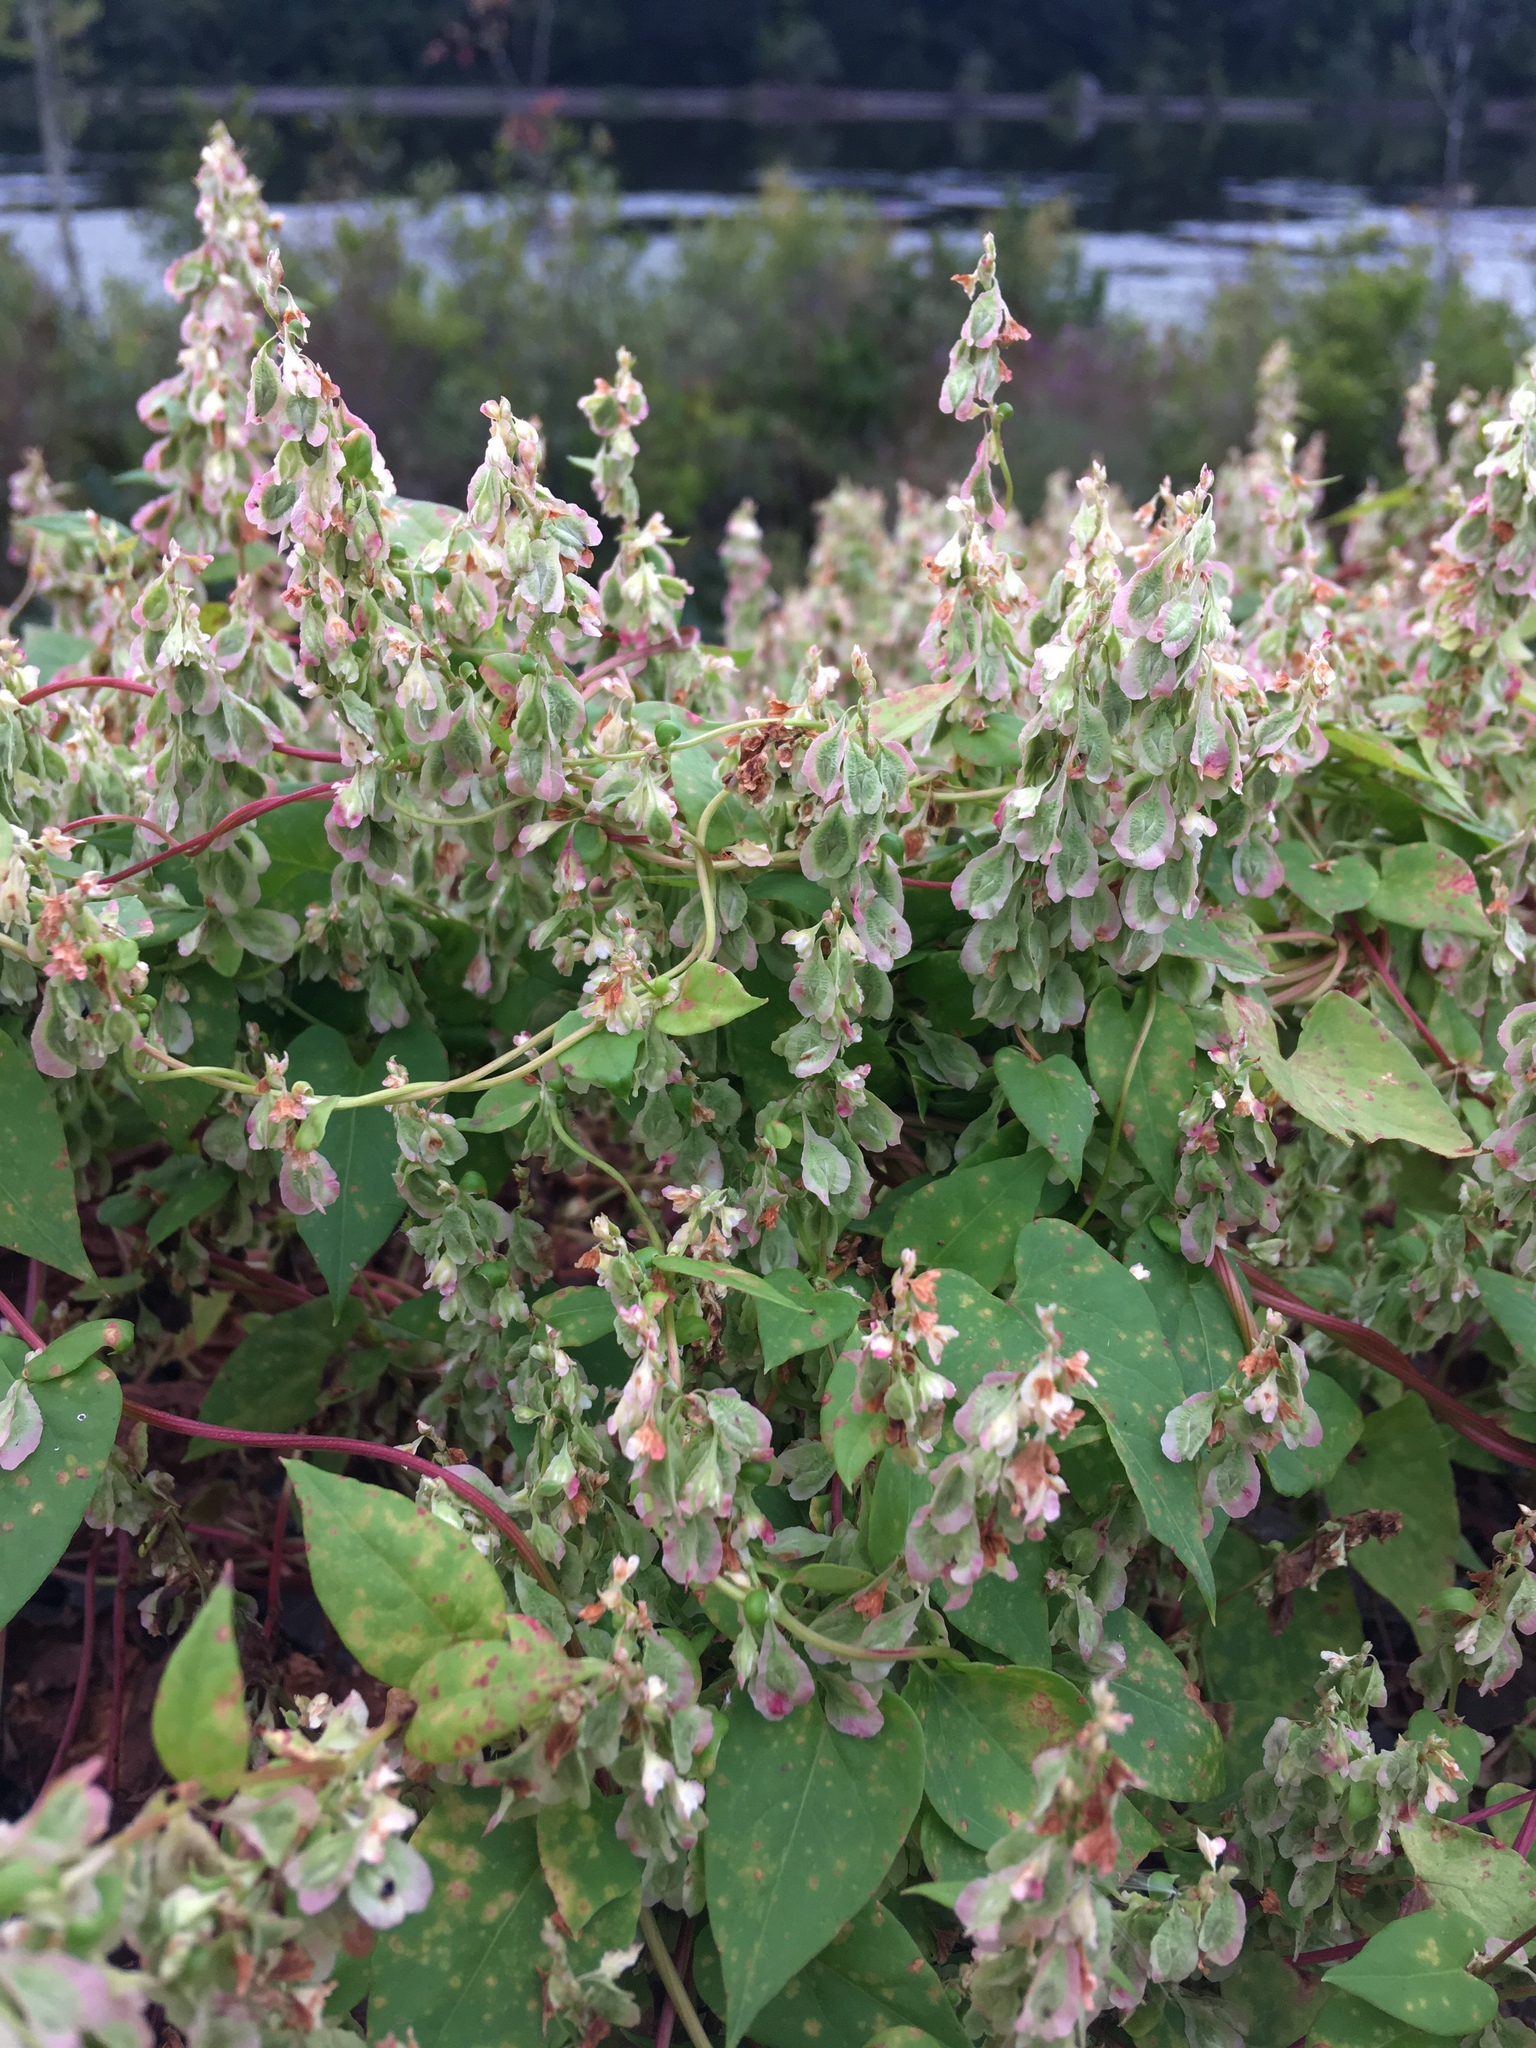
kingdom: Plantae
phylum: Tracheophyta
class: Magnoliopsida
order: Caryophyllales
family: Polygonaceae
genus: Fallopia
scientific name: Fallopia scandens
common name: Climbing false buckwheat
